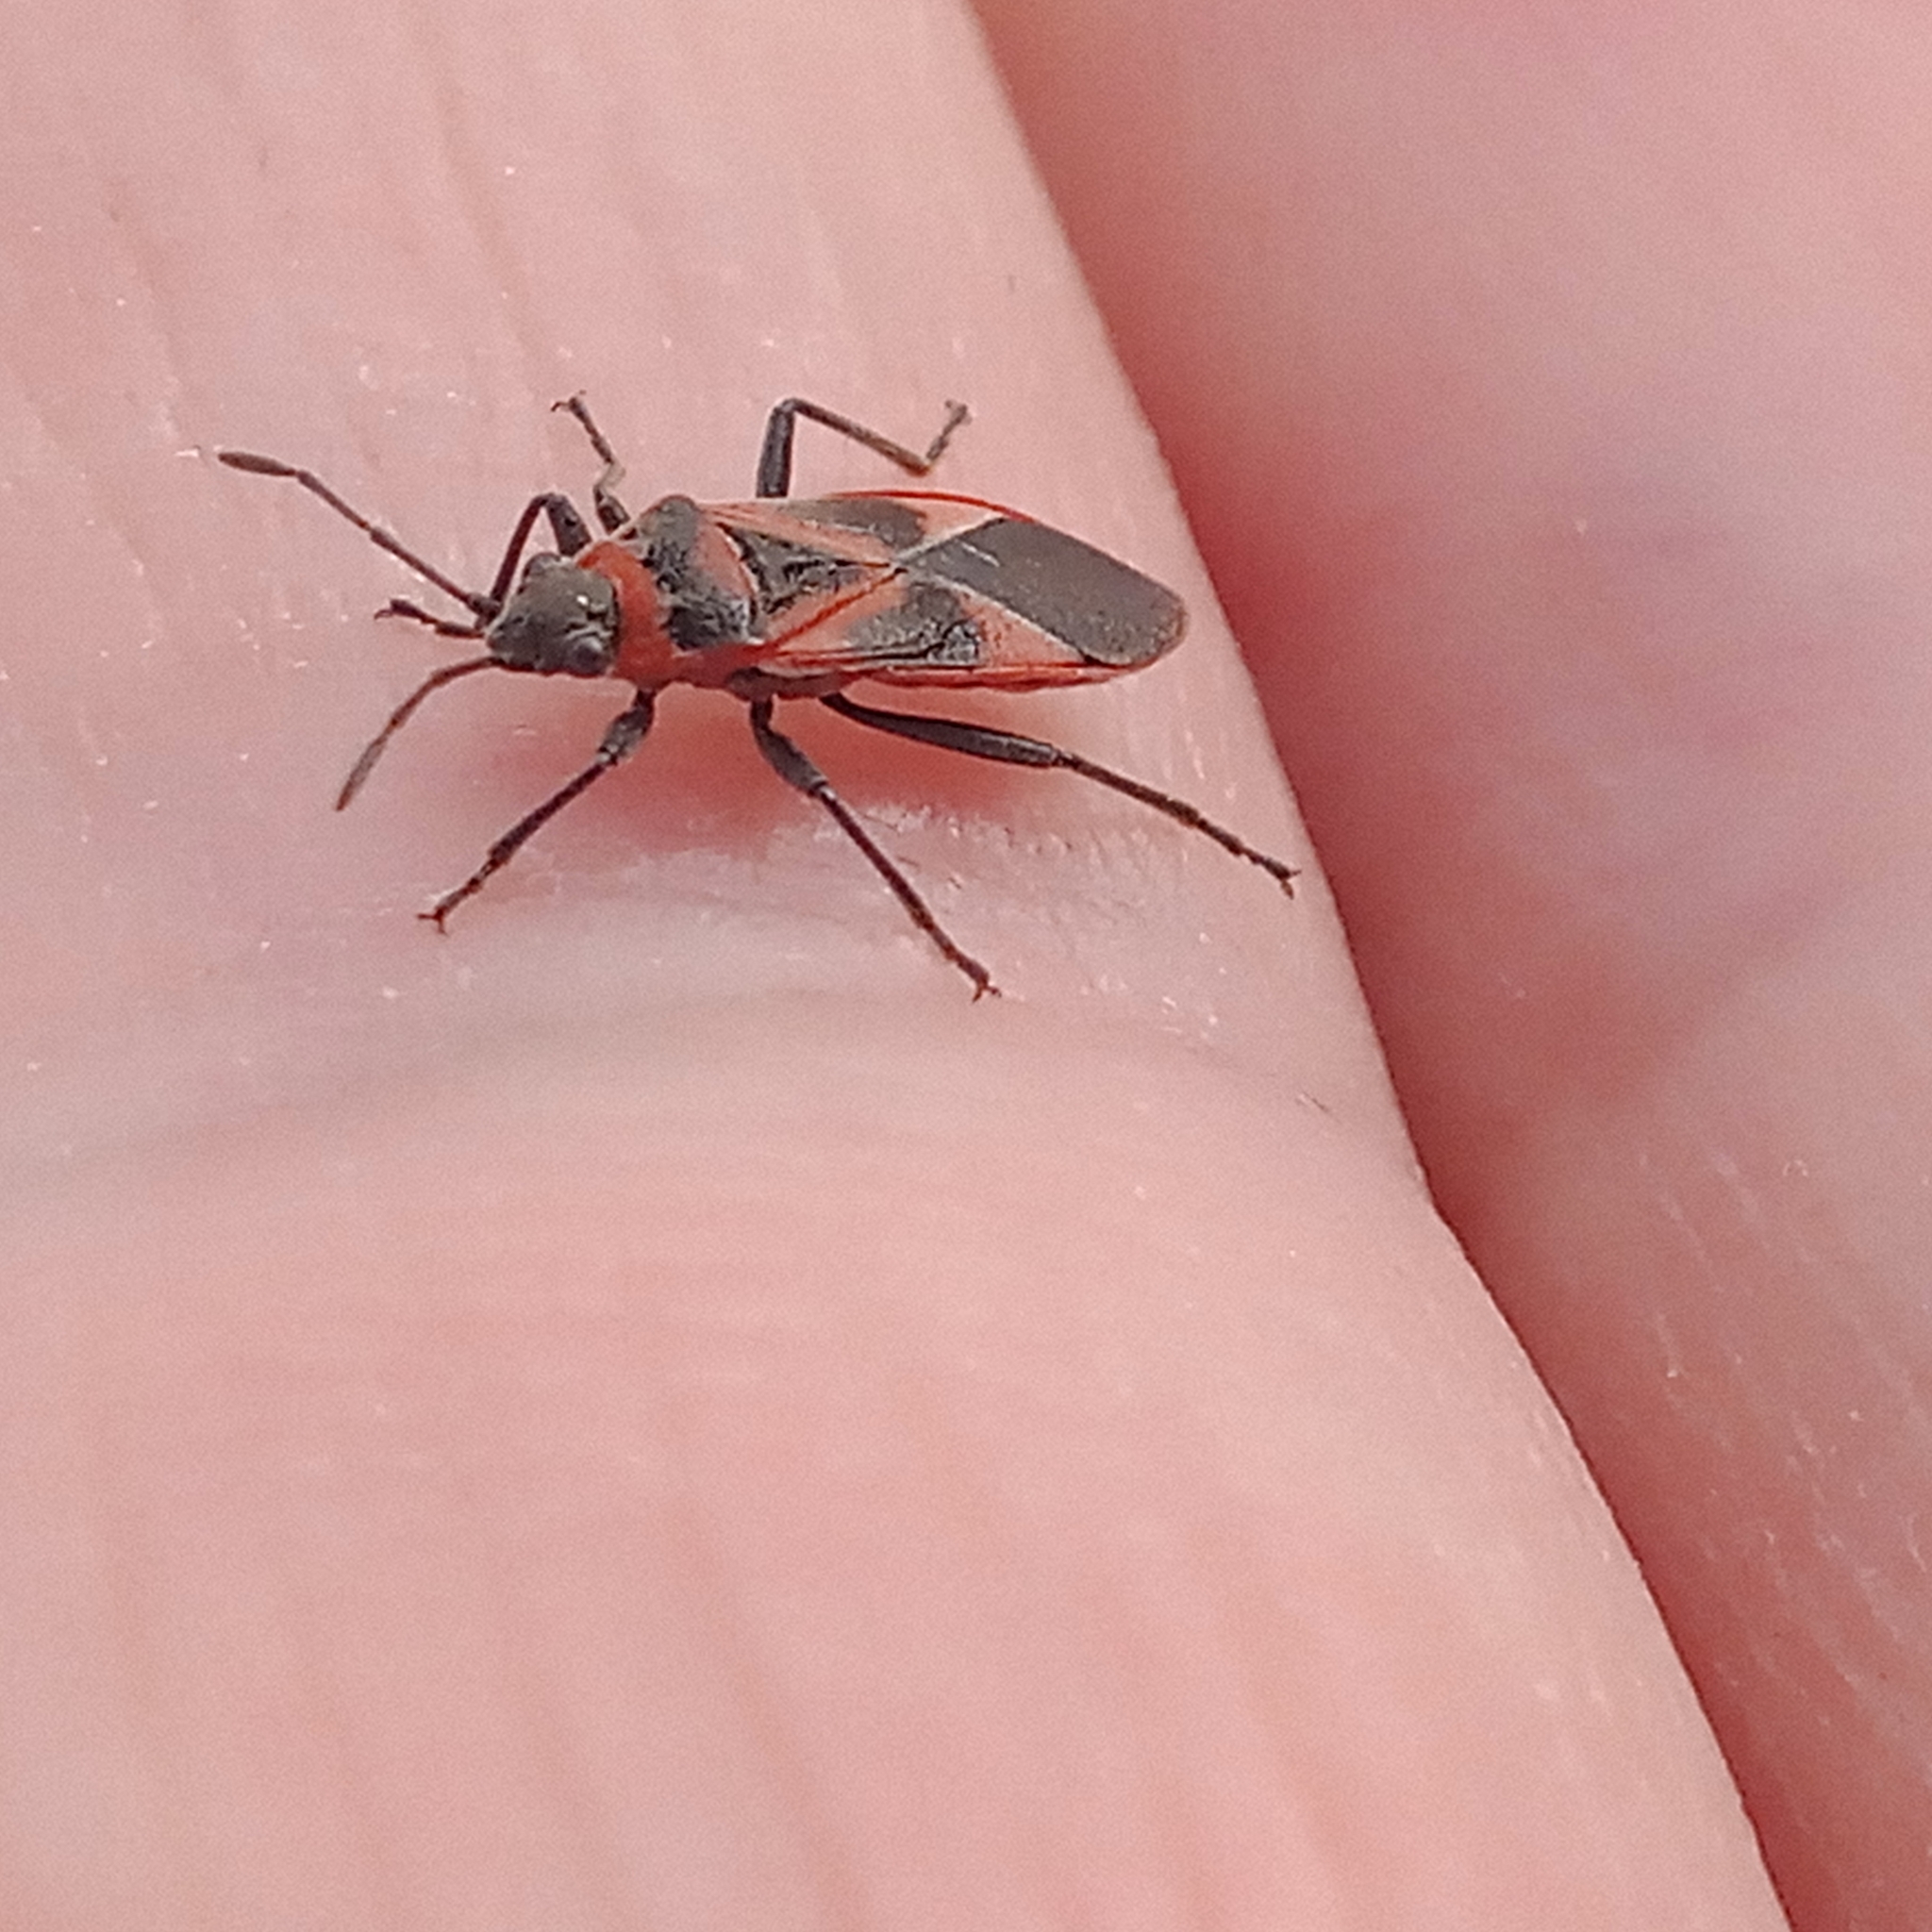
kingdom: Animalia
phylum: Arthropoda
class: Insecta
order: Hemiptera
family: Lygaeidae
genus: Arocatus
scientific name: Arocatus roeselii
